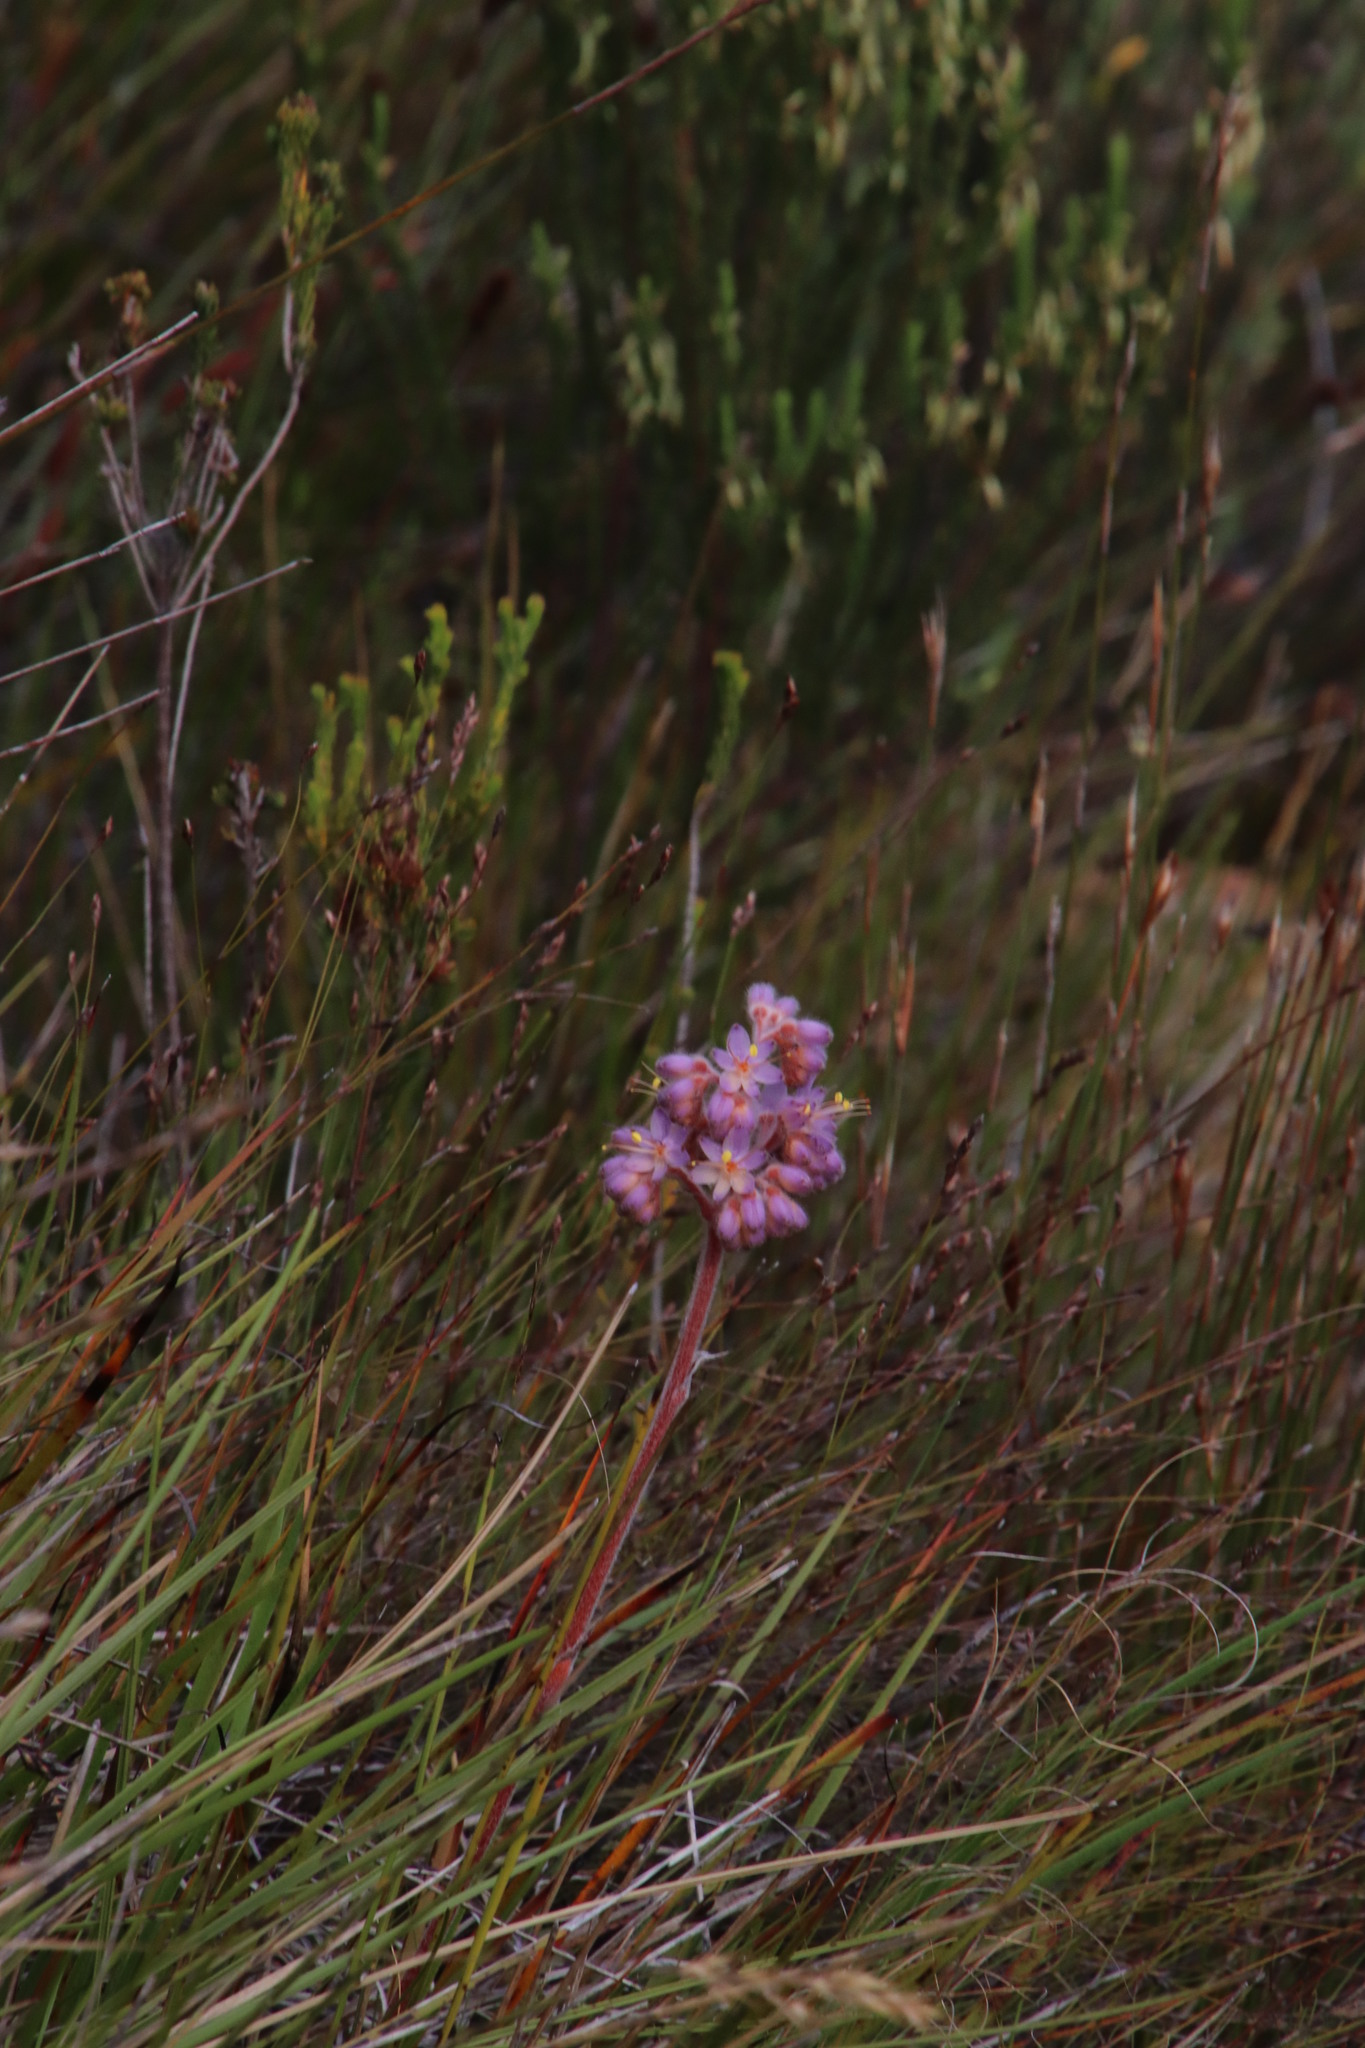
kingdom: Plantae
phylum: Tracheophyta
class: Liliopsida
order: Commelinales
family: Haemodoraceae
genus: Dilatris
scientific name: Dilatris ixioides
